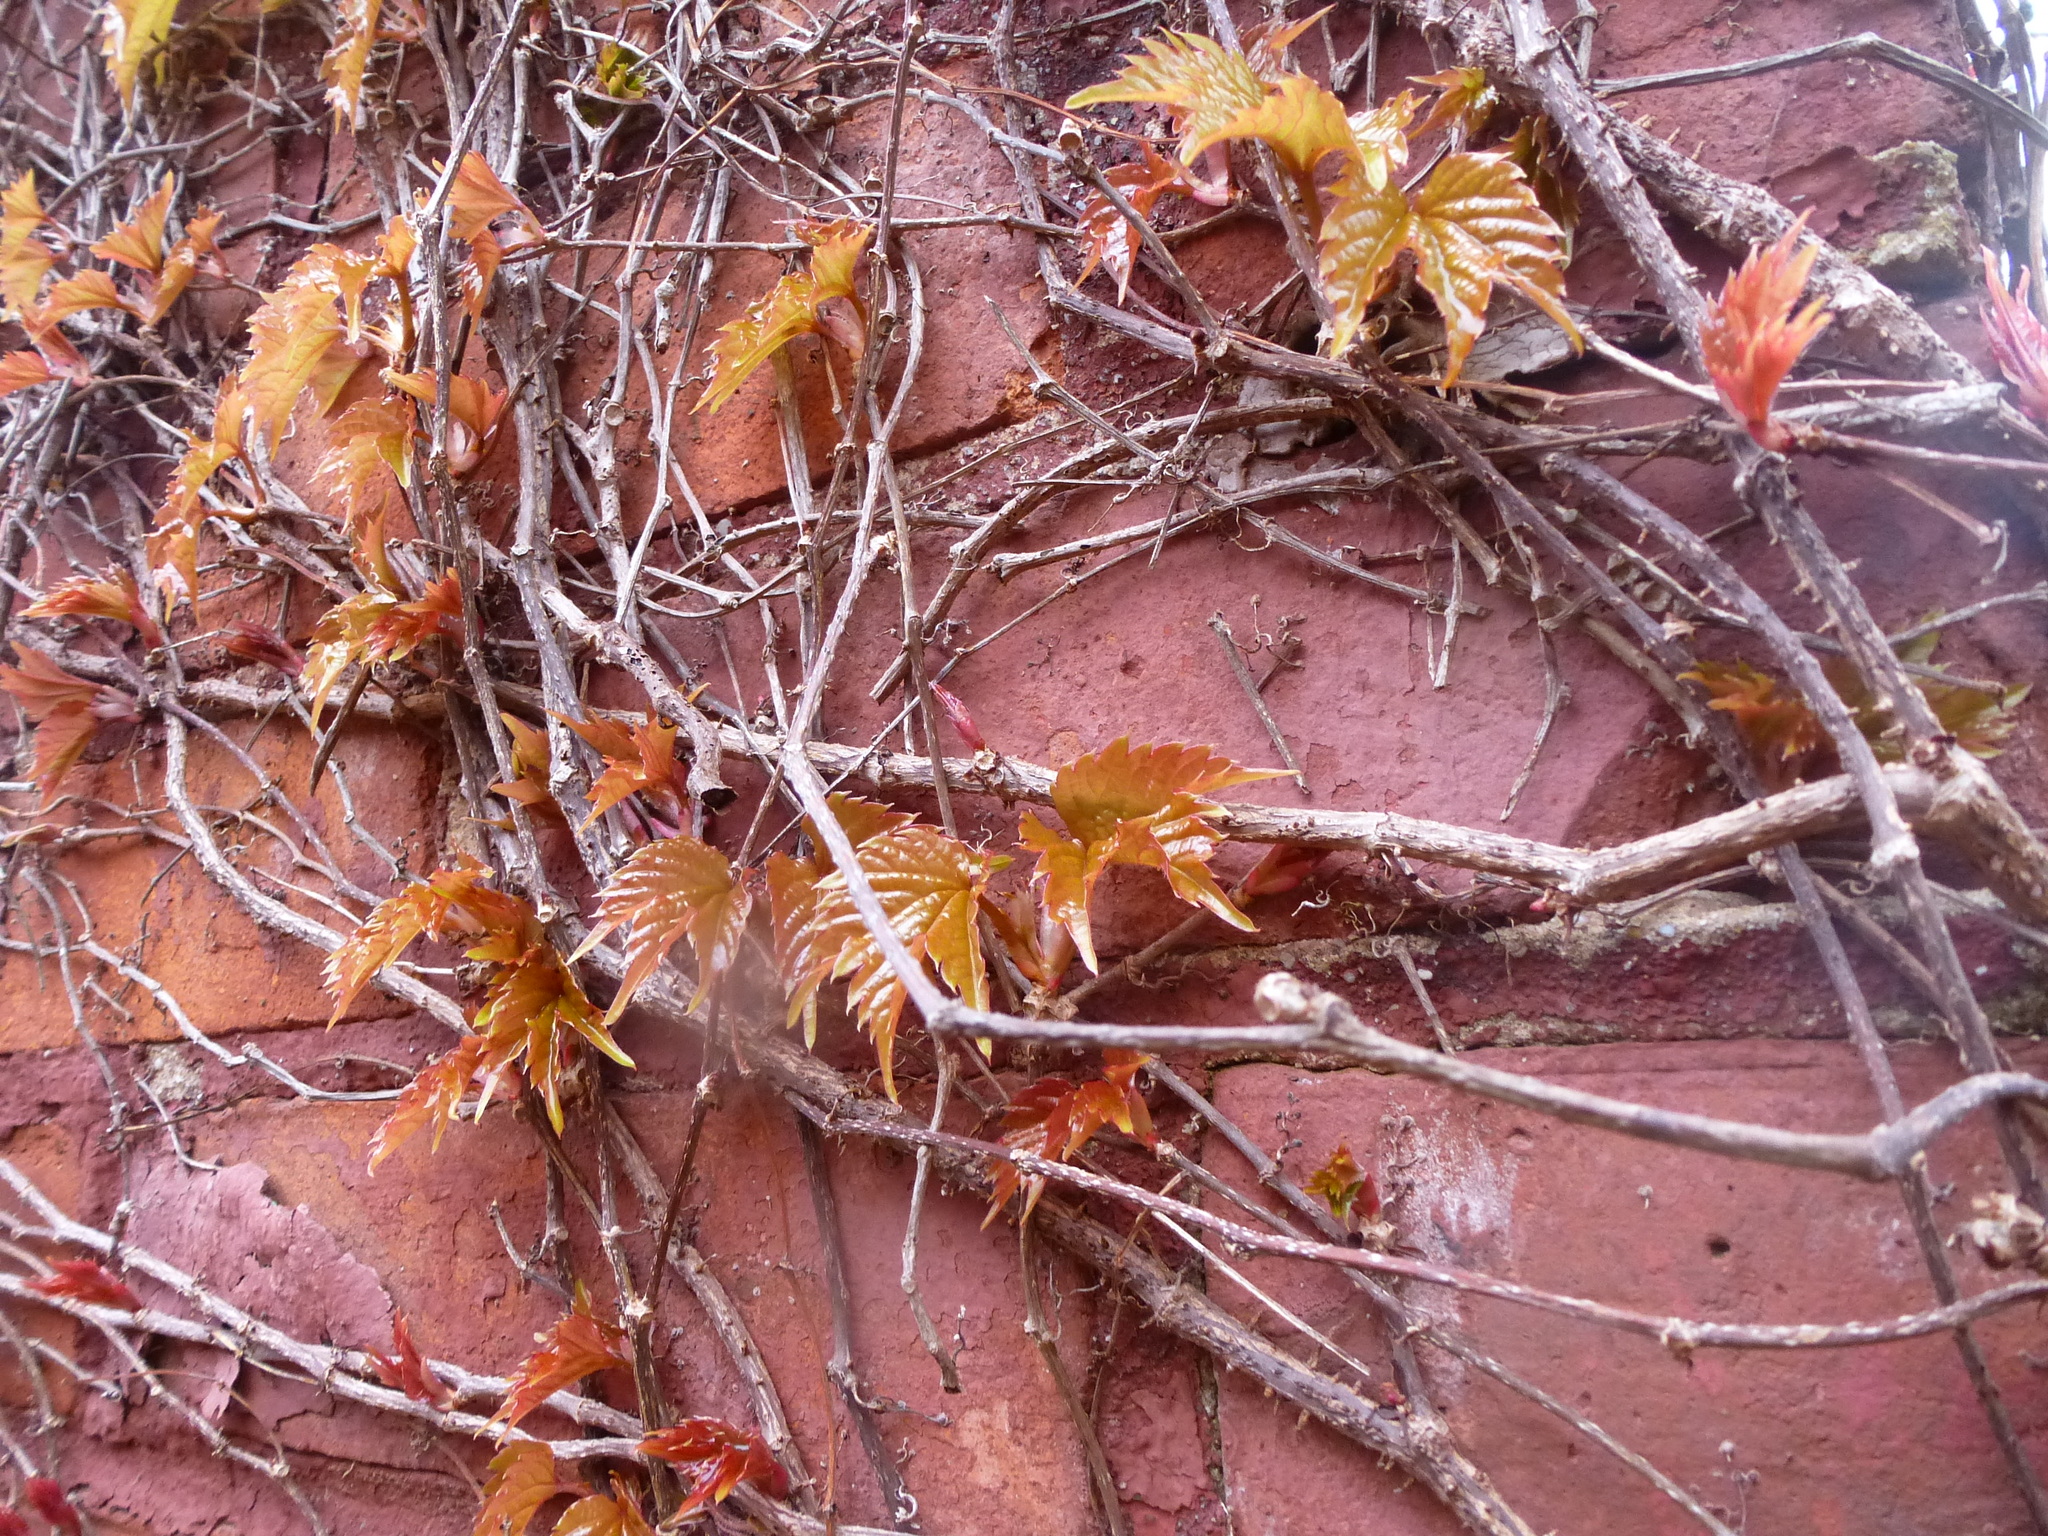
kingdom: Plantae
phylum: Tracheophyta
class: Magnoliopsida
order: Vitales
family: Vitaceae
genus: Parthenocissus
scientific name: Parthenocissus tricuspidata
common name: Boston ivy
